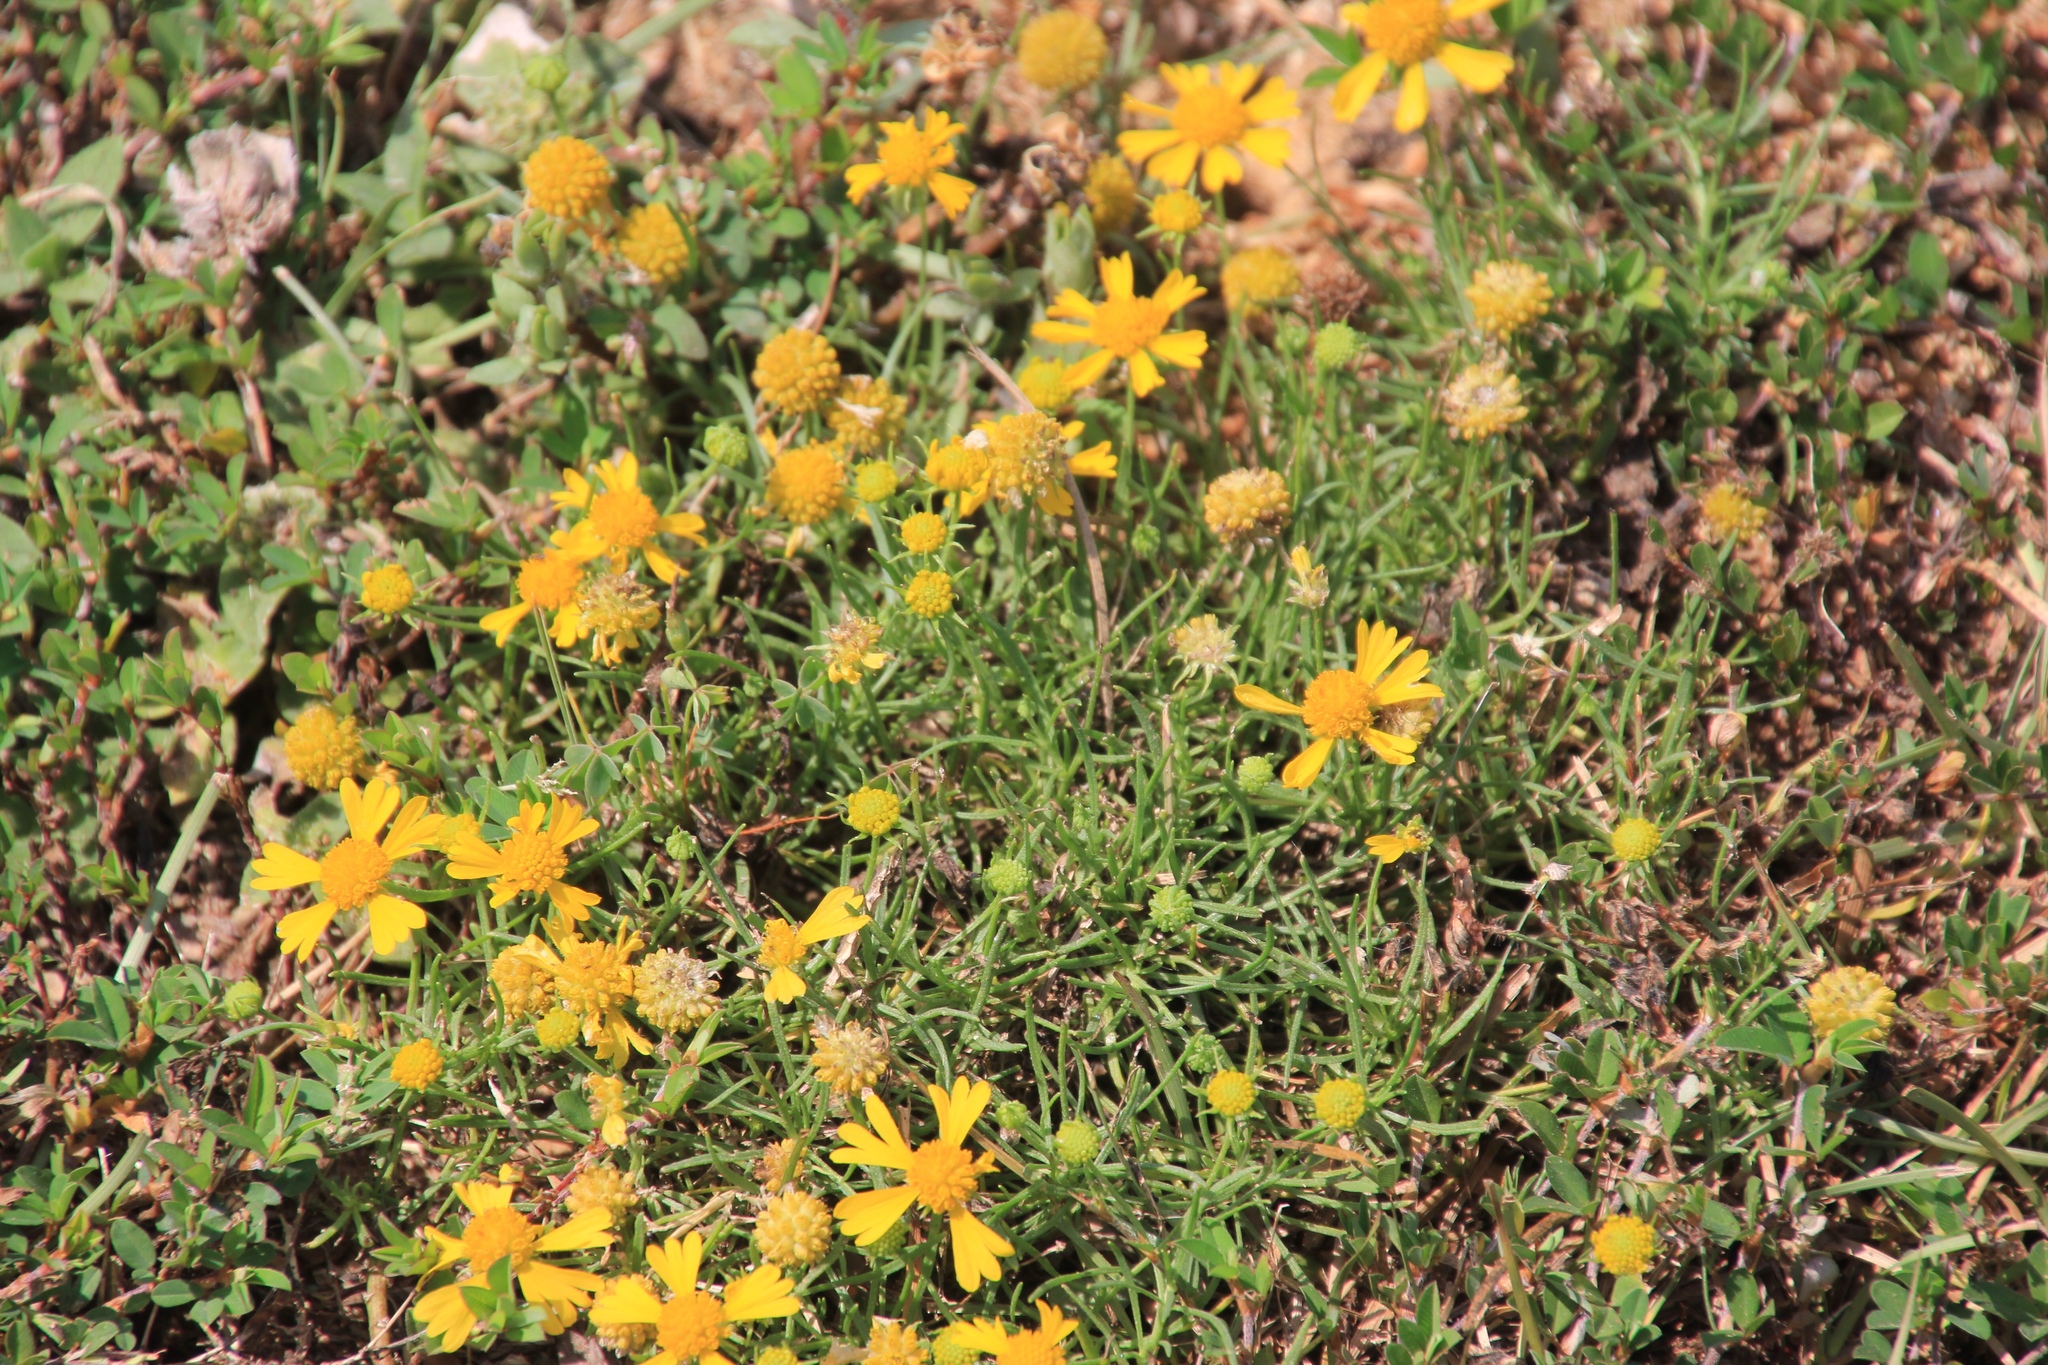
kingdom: Plantae
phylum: Tracheophyta
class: Magnoliopsida
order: Asterales
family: Asteraceae
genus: Helenium
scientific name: Helenium amarum
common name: Bitter sneezeweed
